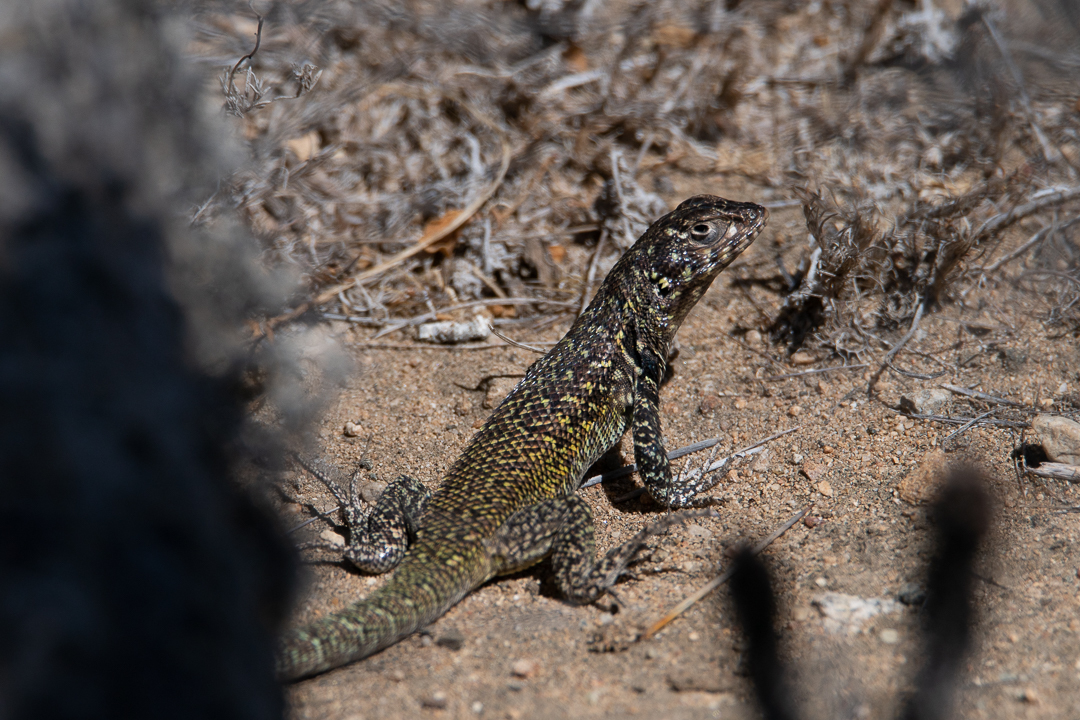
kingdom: Animalia
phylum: Chordata
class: Squamata
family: Liolaemidae
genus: Liolaemus
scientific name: Liolaemus zapallarensis
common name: Zapallaren tree iguana
